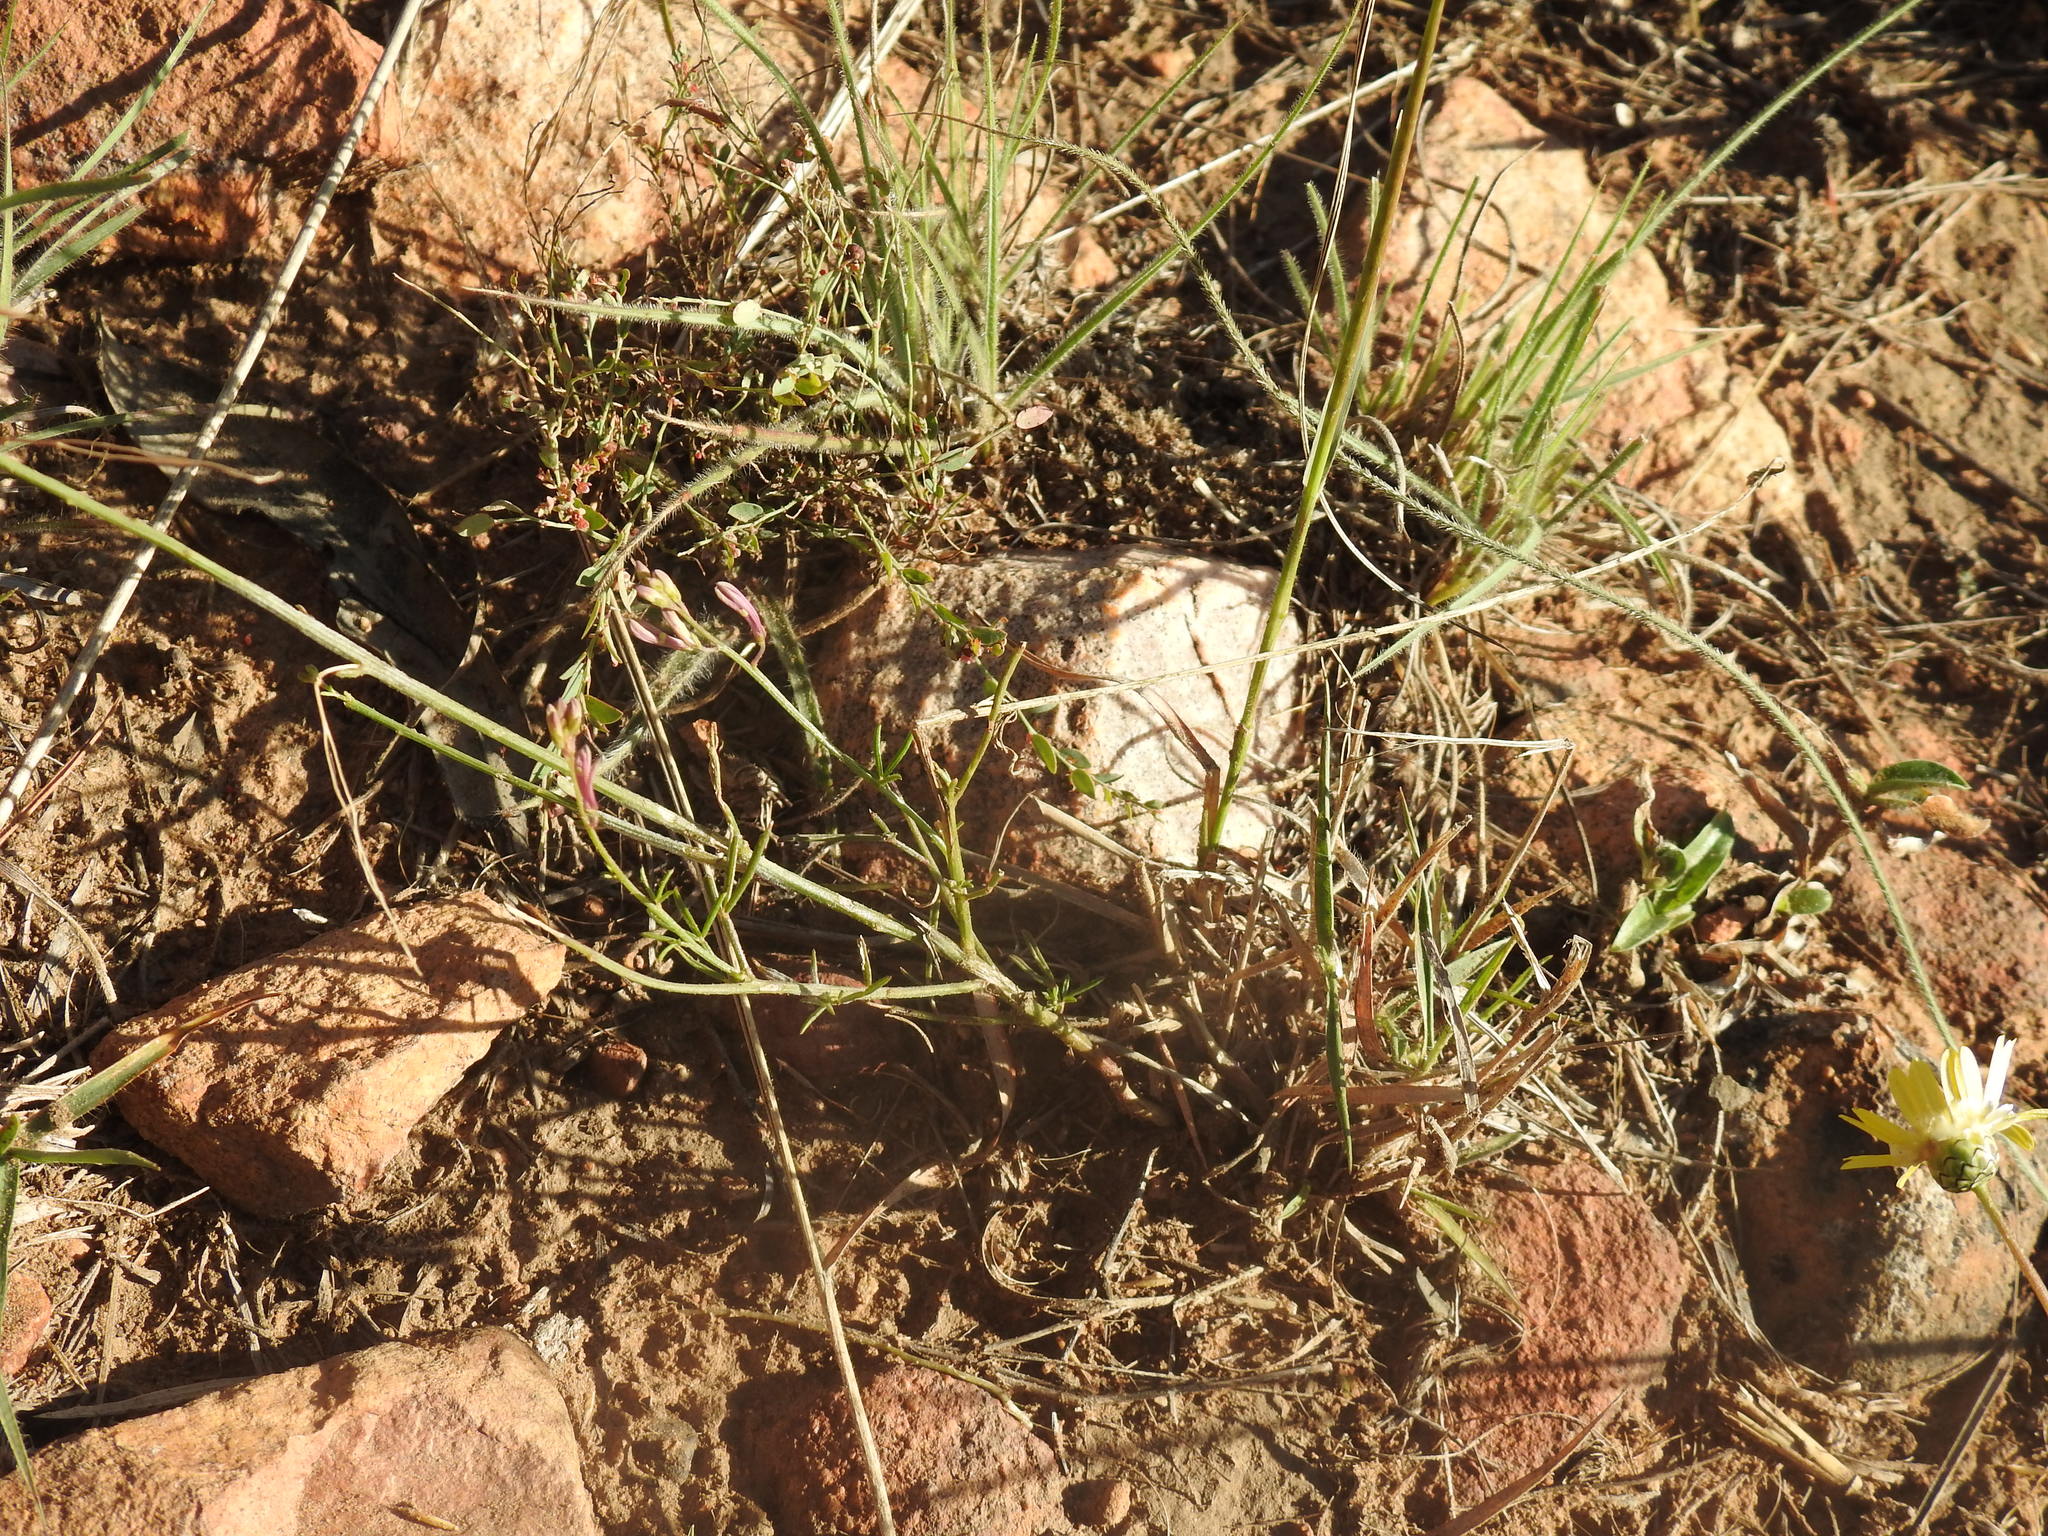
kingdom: Plantae
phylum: Tracheophyta
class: Magnoliopsida
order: Brassicales
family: Cleomaceae
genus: Sieruela
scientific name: Sieruela maculata
